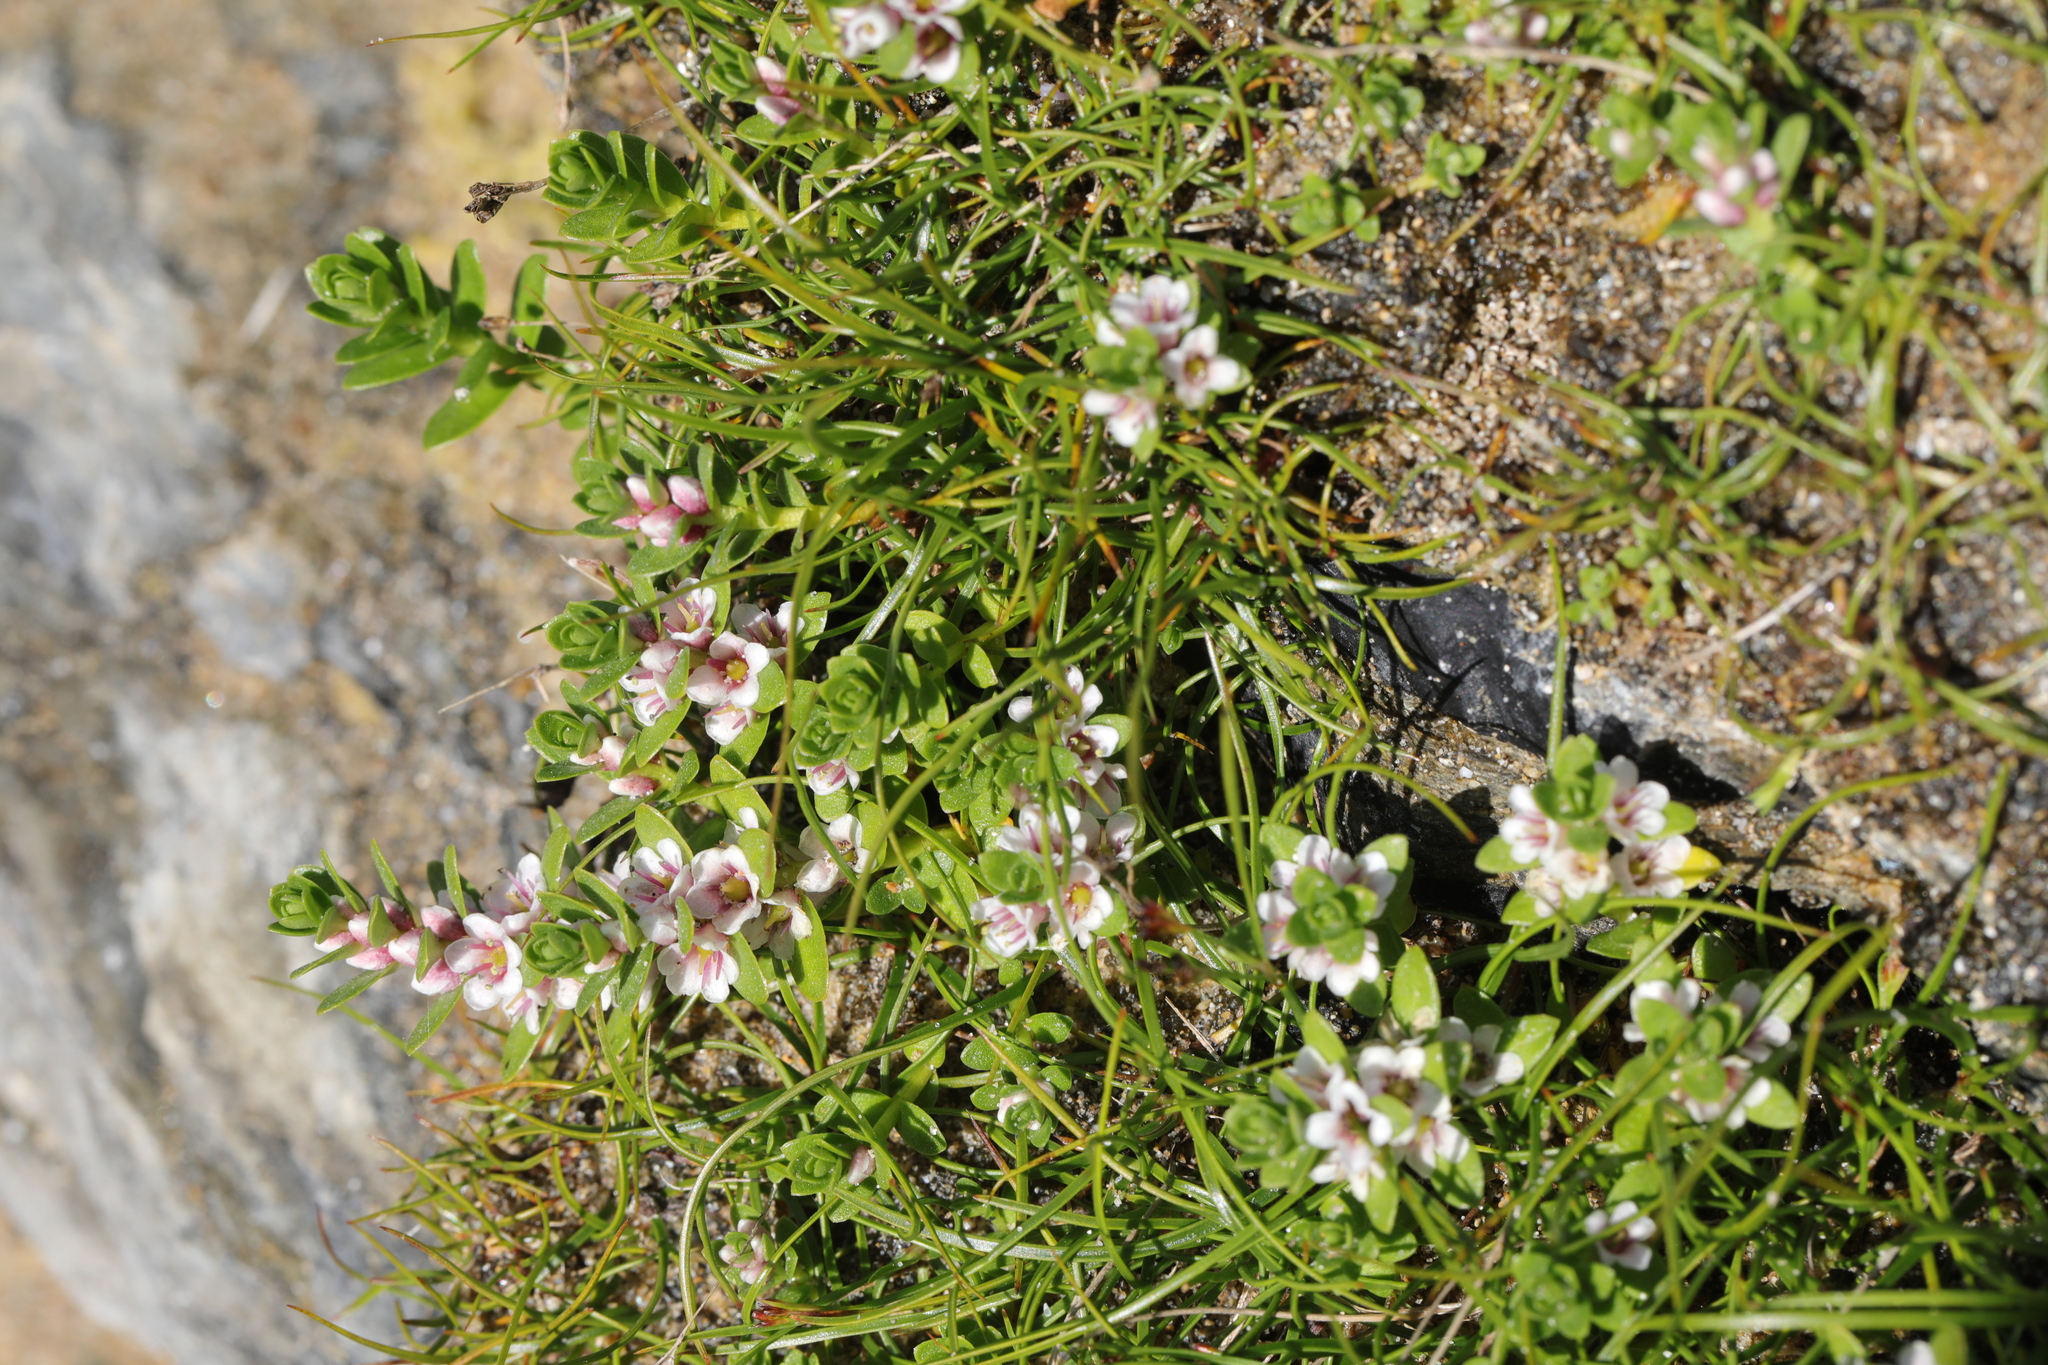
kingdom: Plantae
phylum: Tracheophyta
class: Magnoliopsida
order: Ericales
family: Primulaceae
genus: Lysimachia
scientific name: Lysimachia maritima
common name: Sea milkwort
